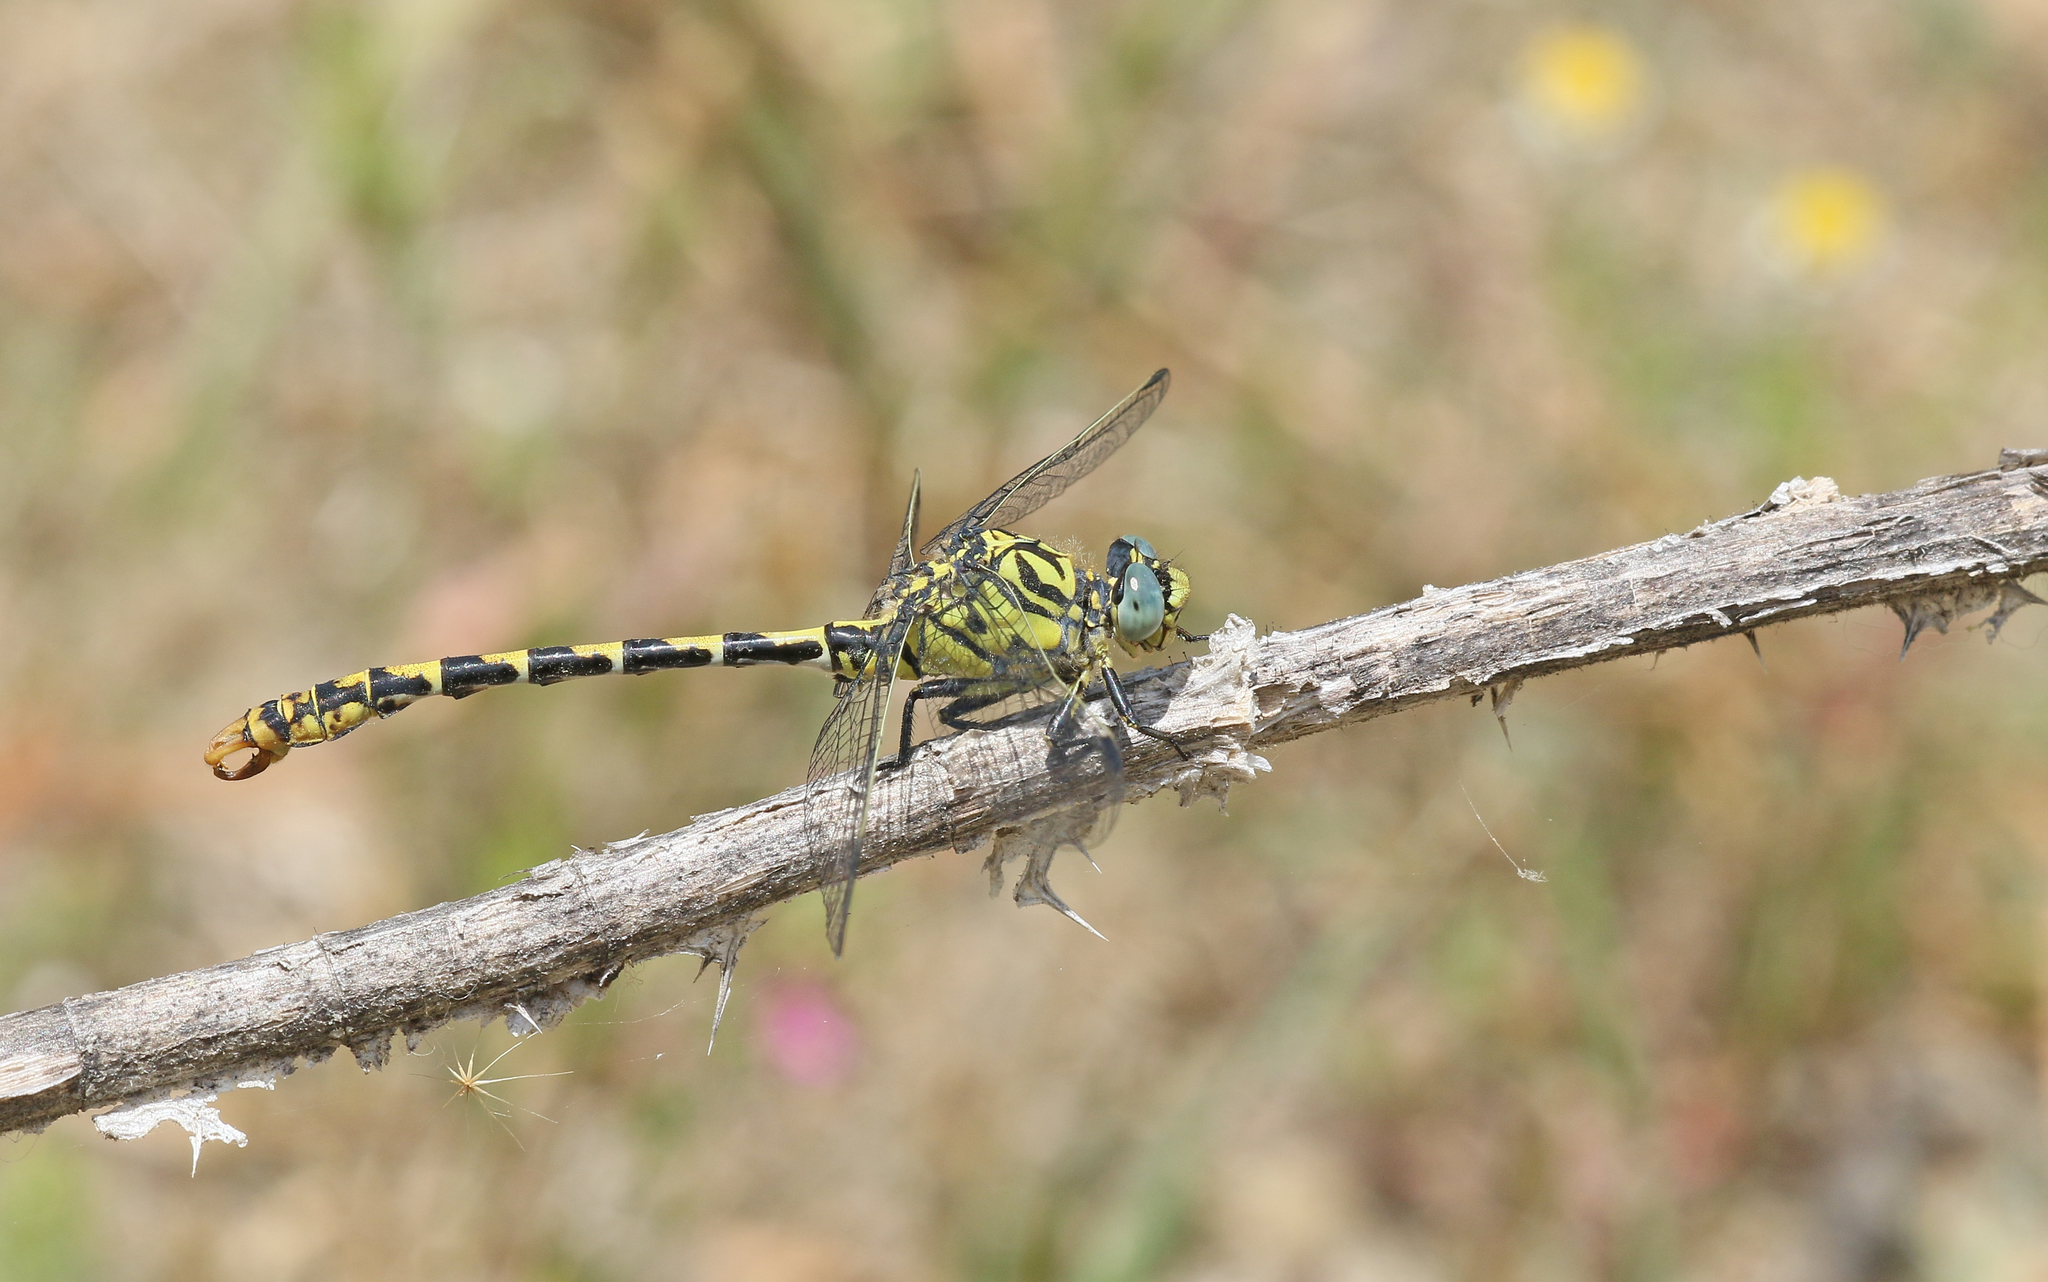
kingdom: Animalia
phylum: Arthropoda
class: Insecta
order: Odonata
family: Gomphidae
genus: Onychogomphus
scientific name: Onychogomphus forcipatus
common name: Small pincertail
